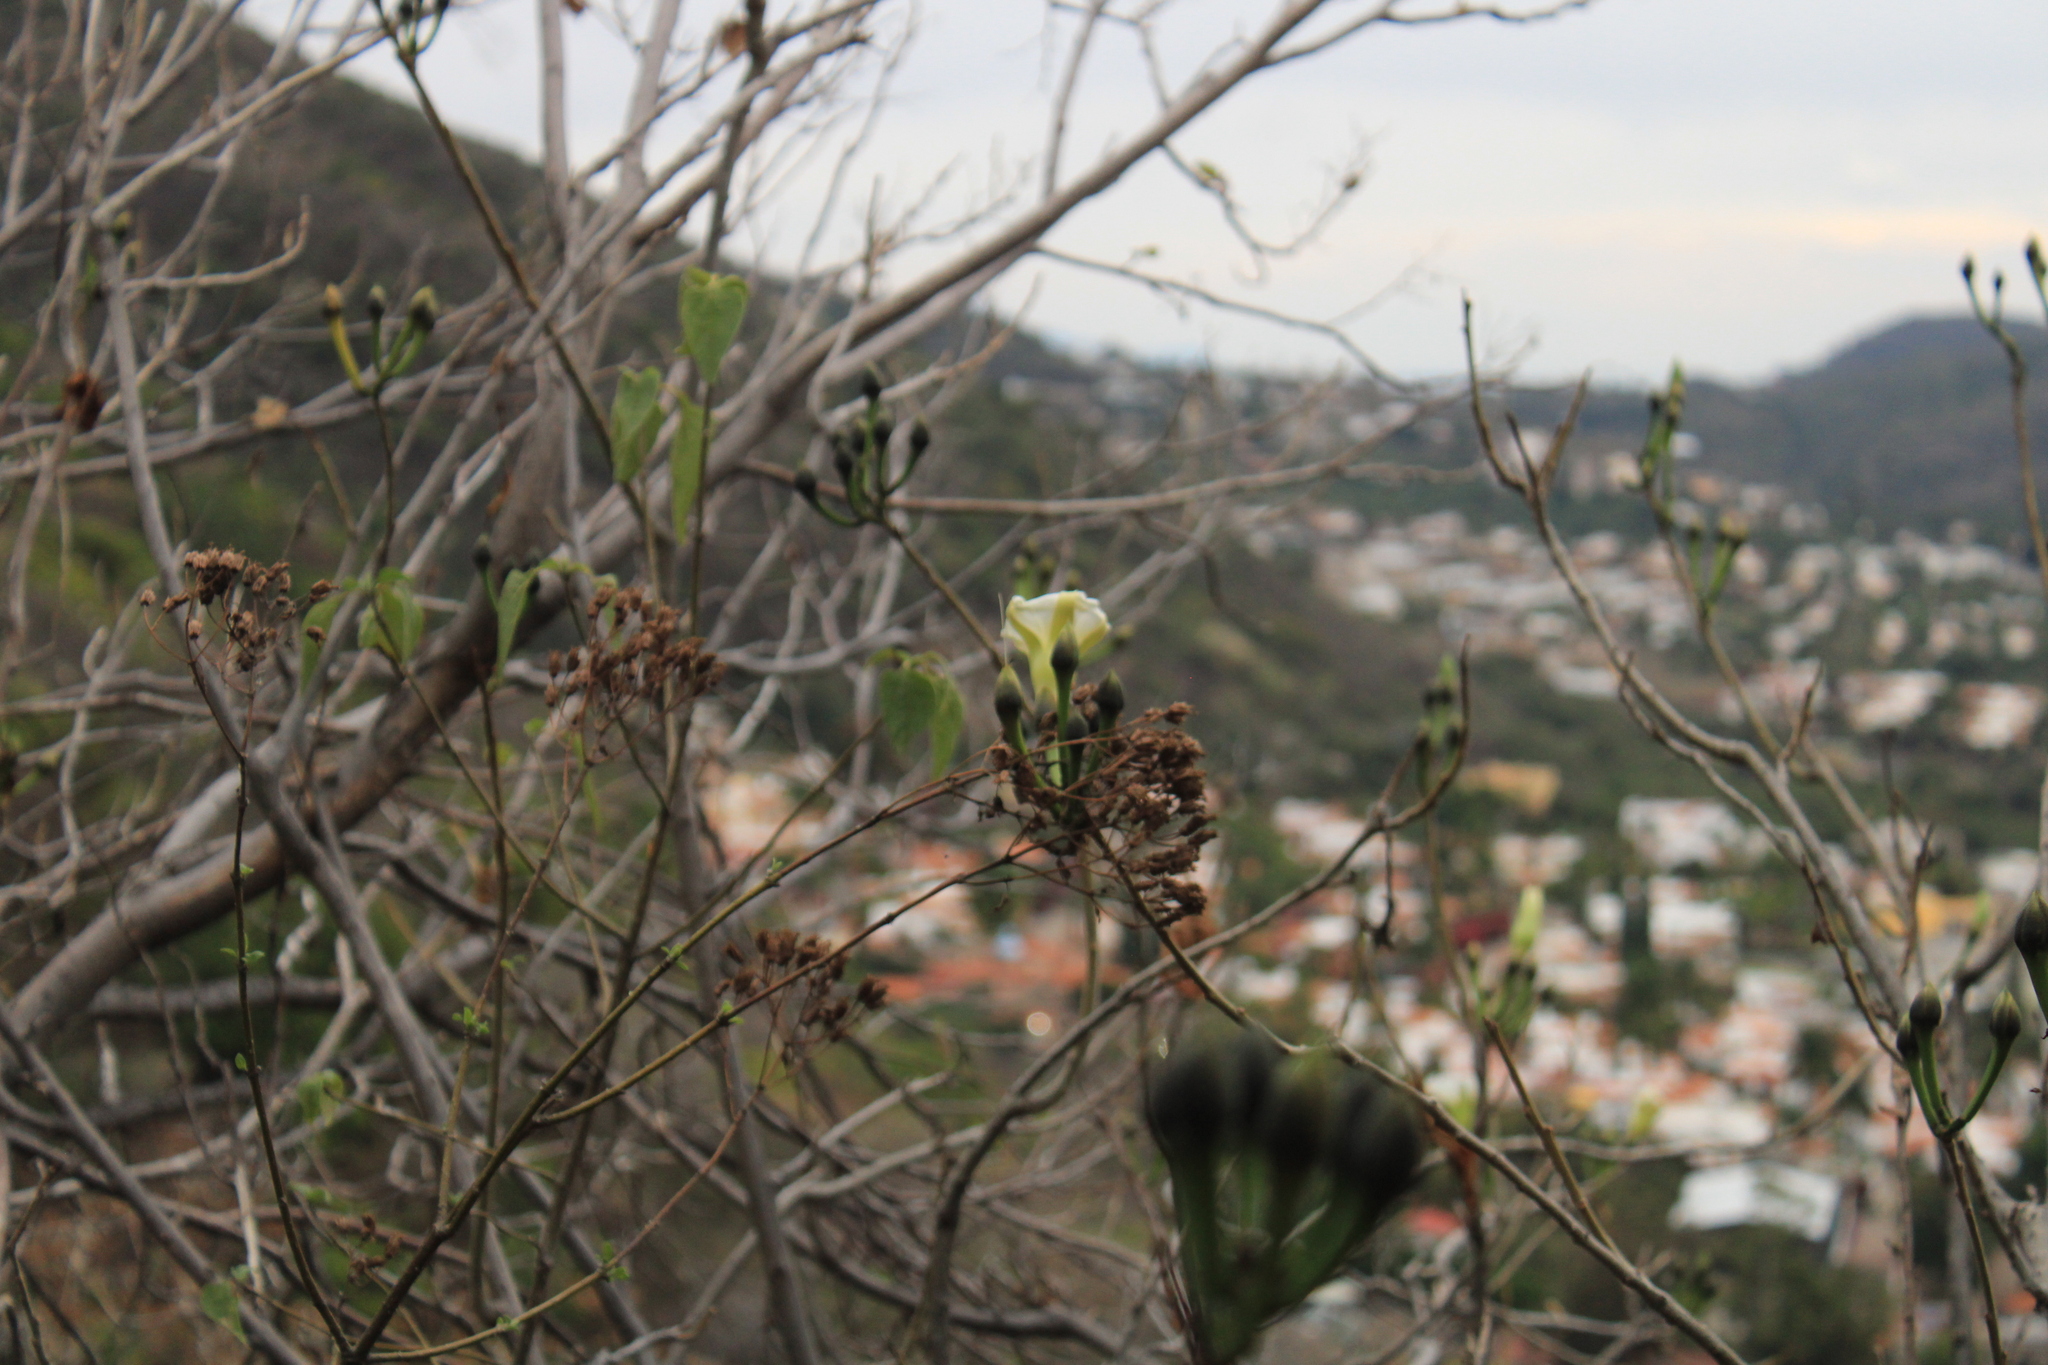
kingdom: Plantae
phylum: Tracheophyta
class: Magnoliopsida
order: Solanales
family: Convolvulaceae
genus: Ipomoea
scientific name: Ipomoea intrapilosa
